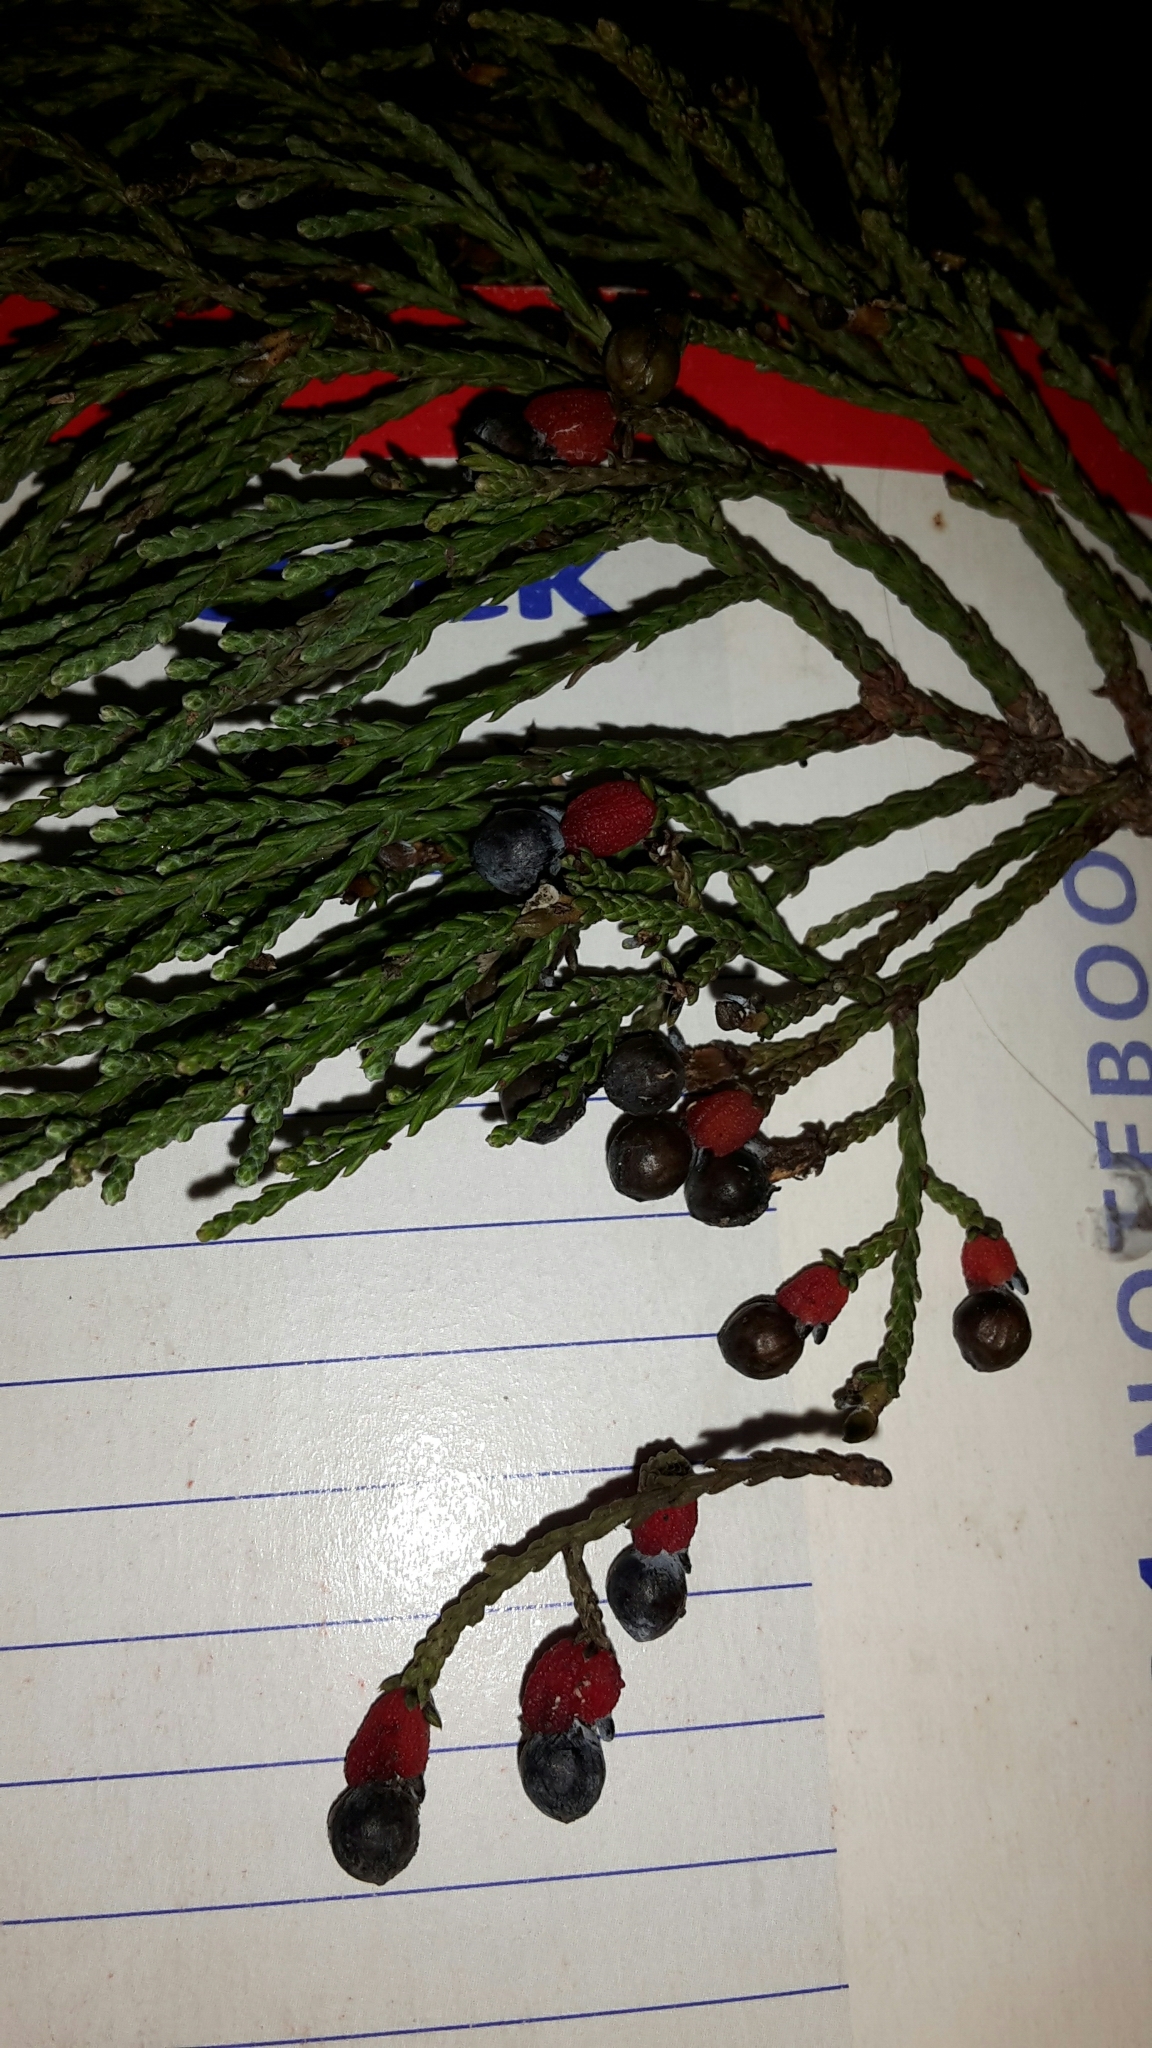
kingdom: Plantae
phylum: Tracheophyta
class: Pinopsida
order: Pinales
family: Podocarpaceae
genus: Dacrycarpus
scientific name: Dacrycarpus dacrydioides
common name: White pine
